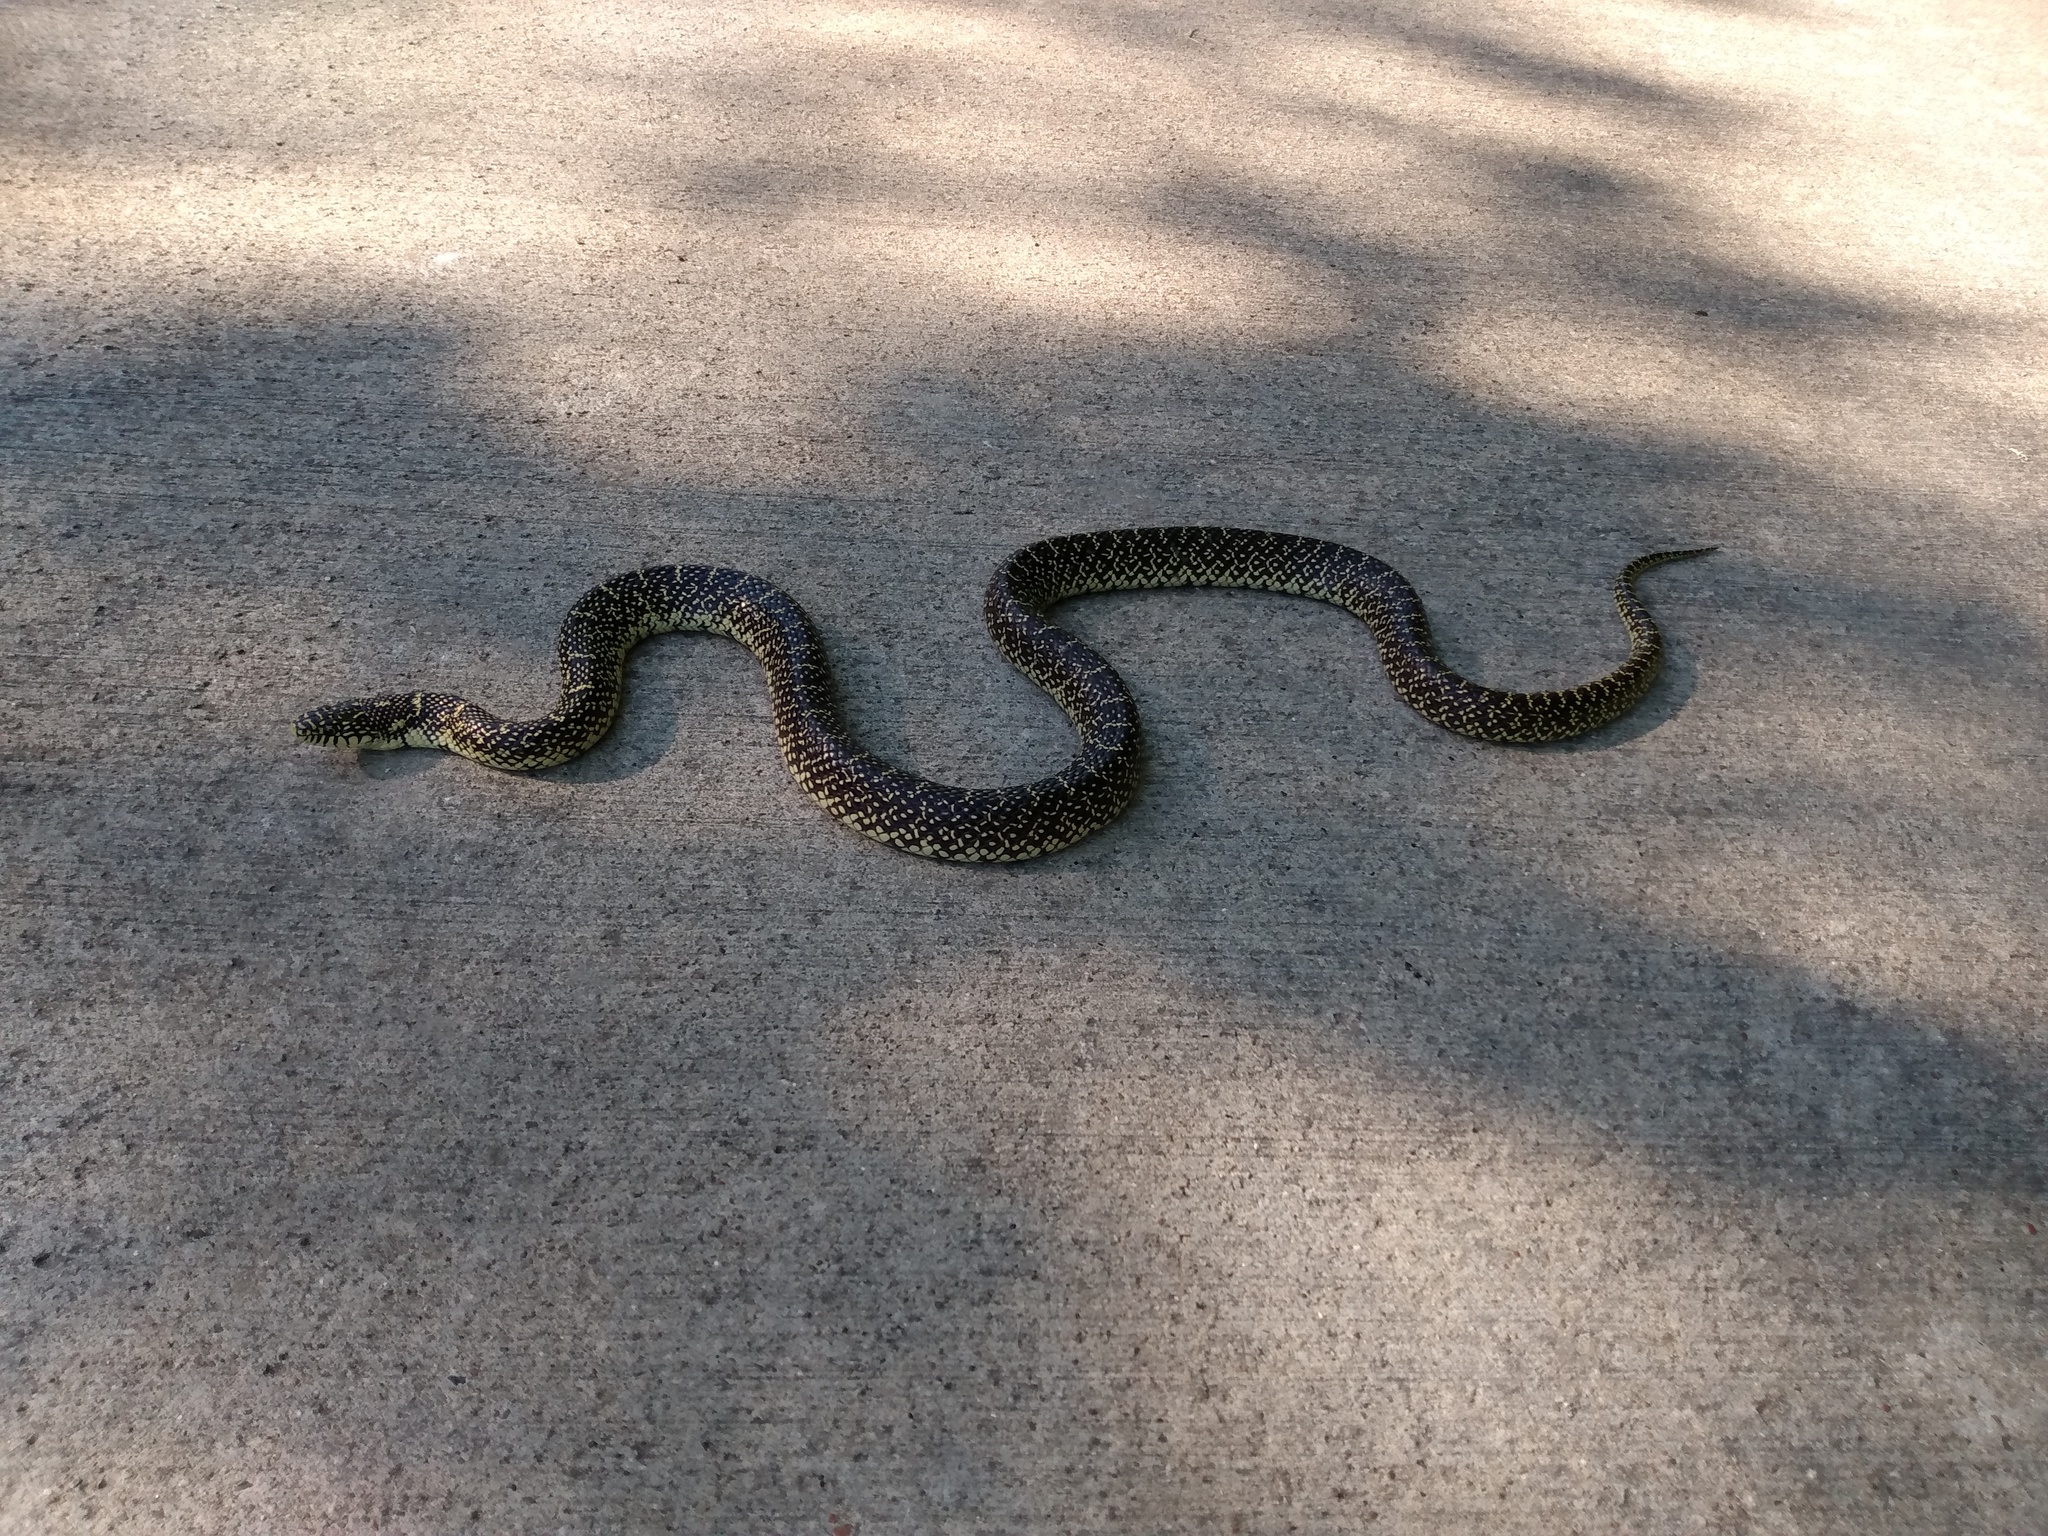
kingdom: Animalia
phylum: Chordata
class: Squamata
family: Colubridae
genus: Lampropeltis
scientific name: Lampropeltis holbrooki
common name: Speckled kingsnake
